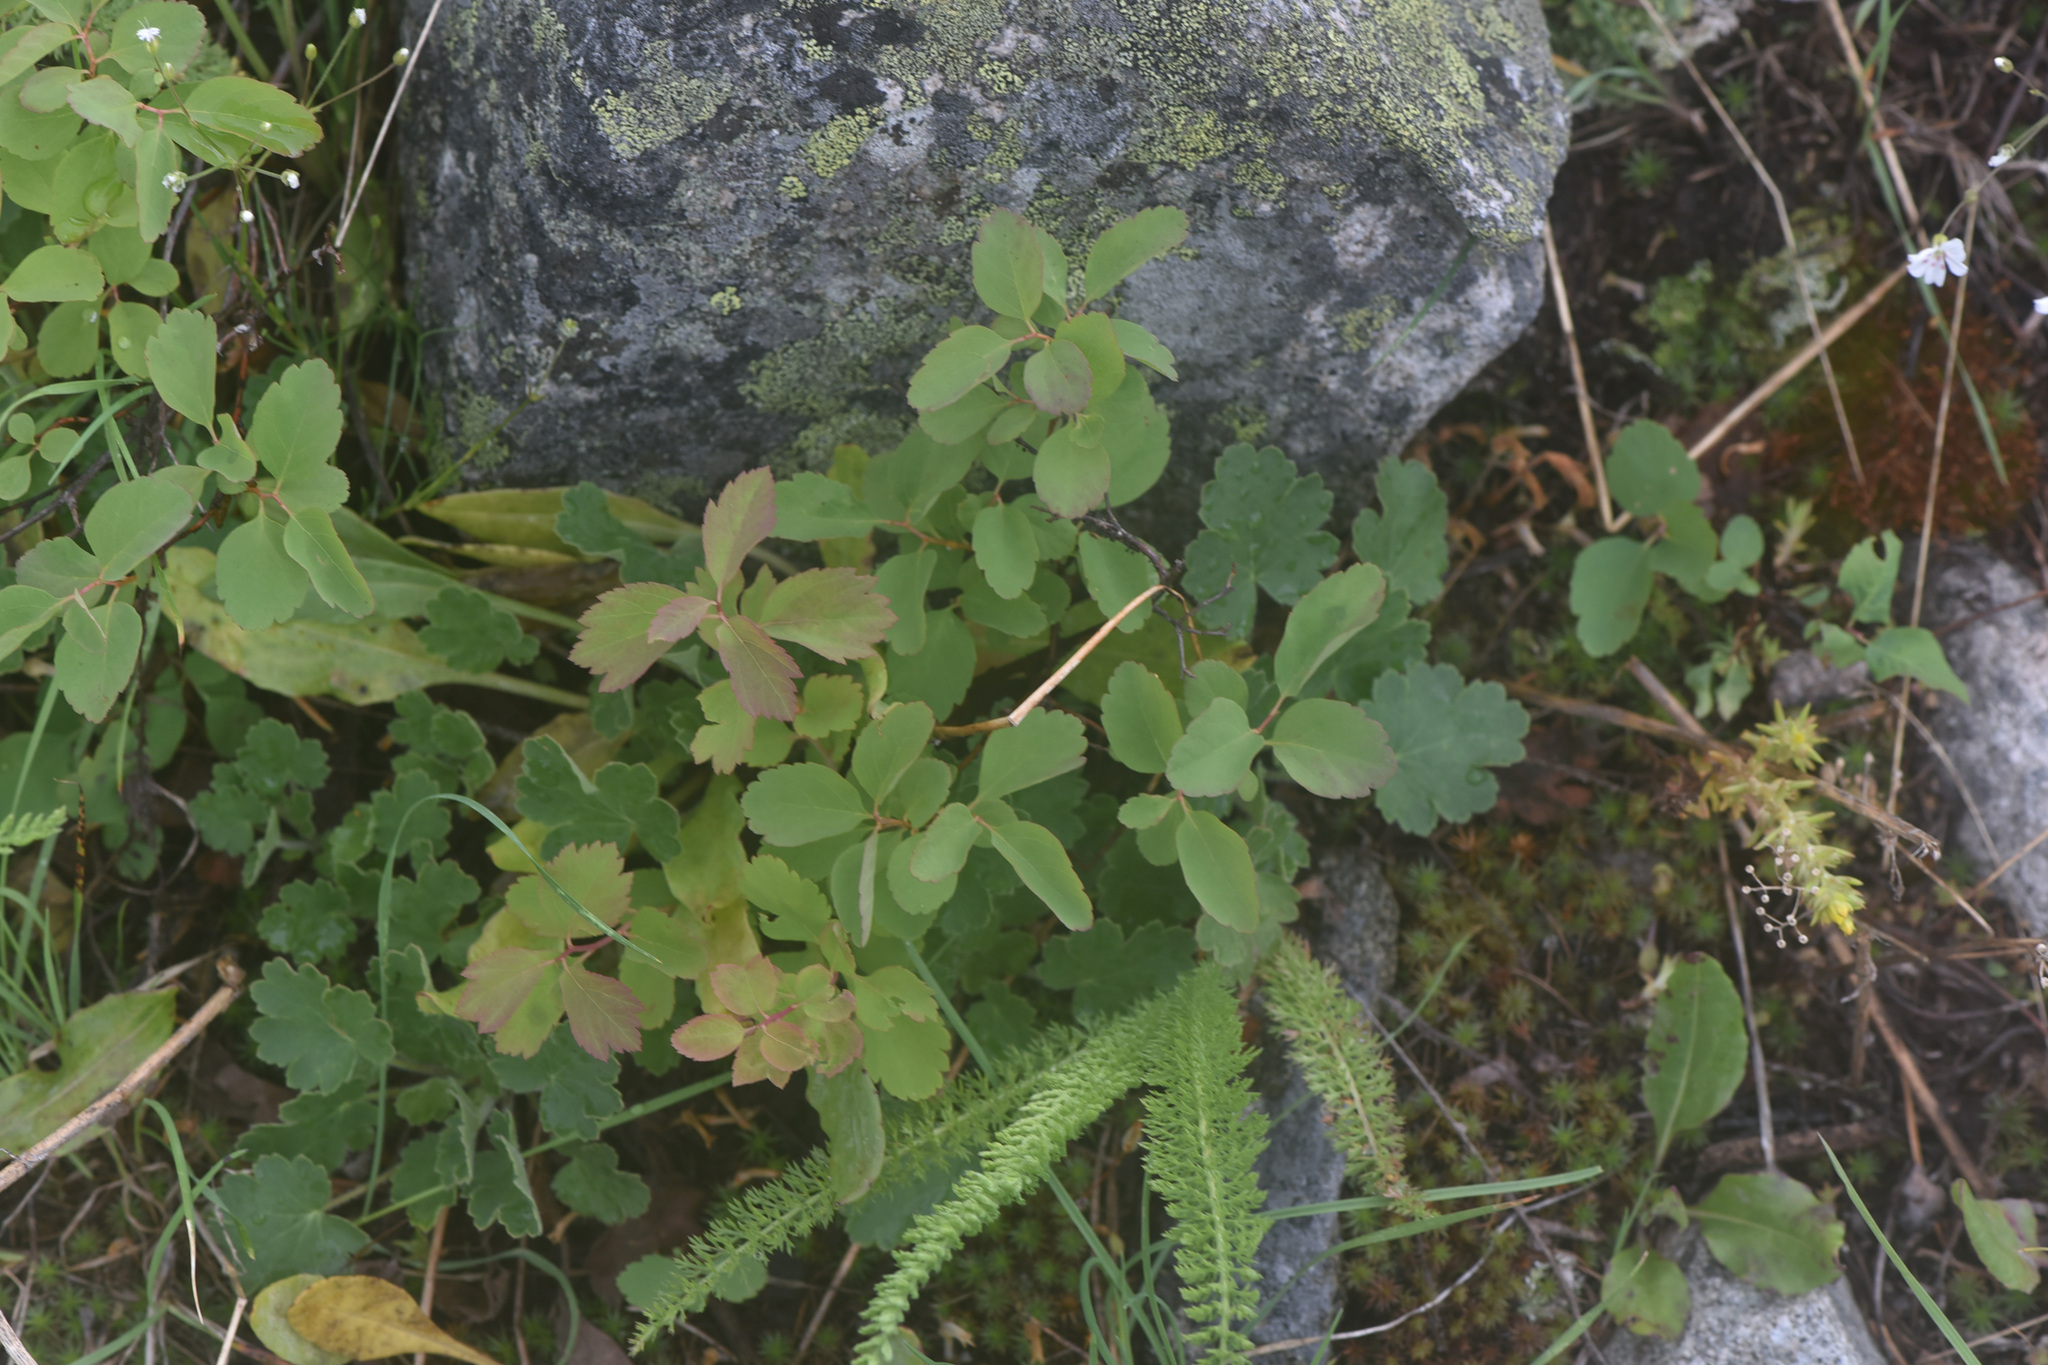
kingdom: Plantae
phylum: Tracheophyta
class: Magnoliopsida
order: Asterales
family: Asteraceae
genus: Achillea
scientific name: Achillea millefolium
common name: Yarrow
